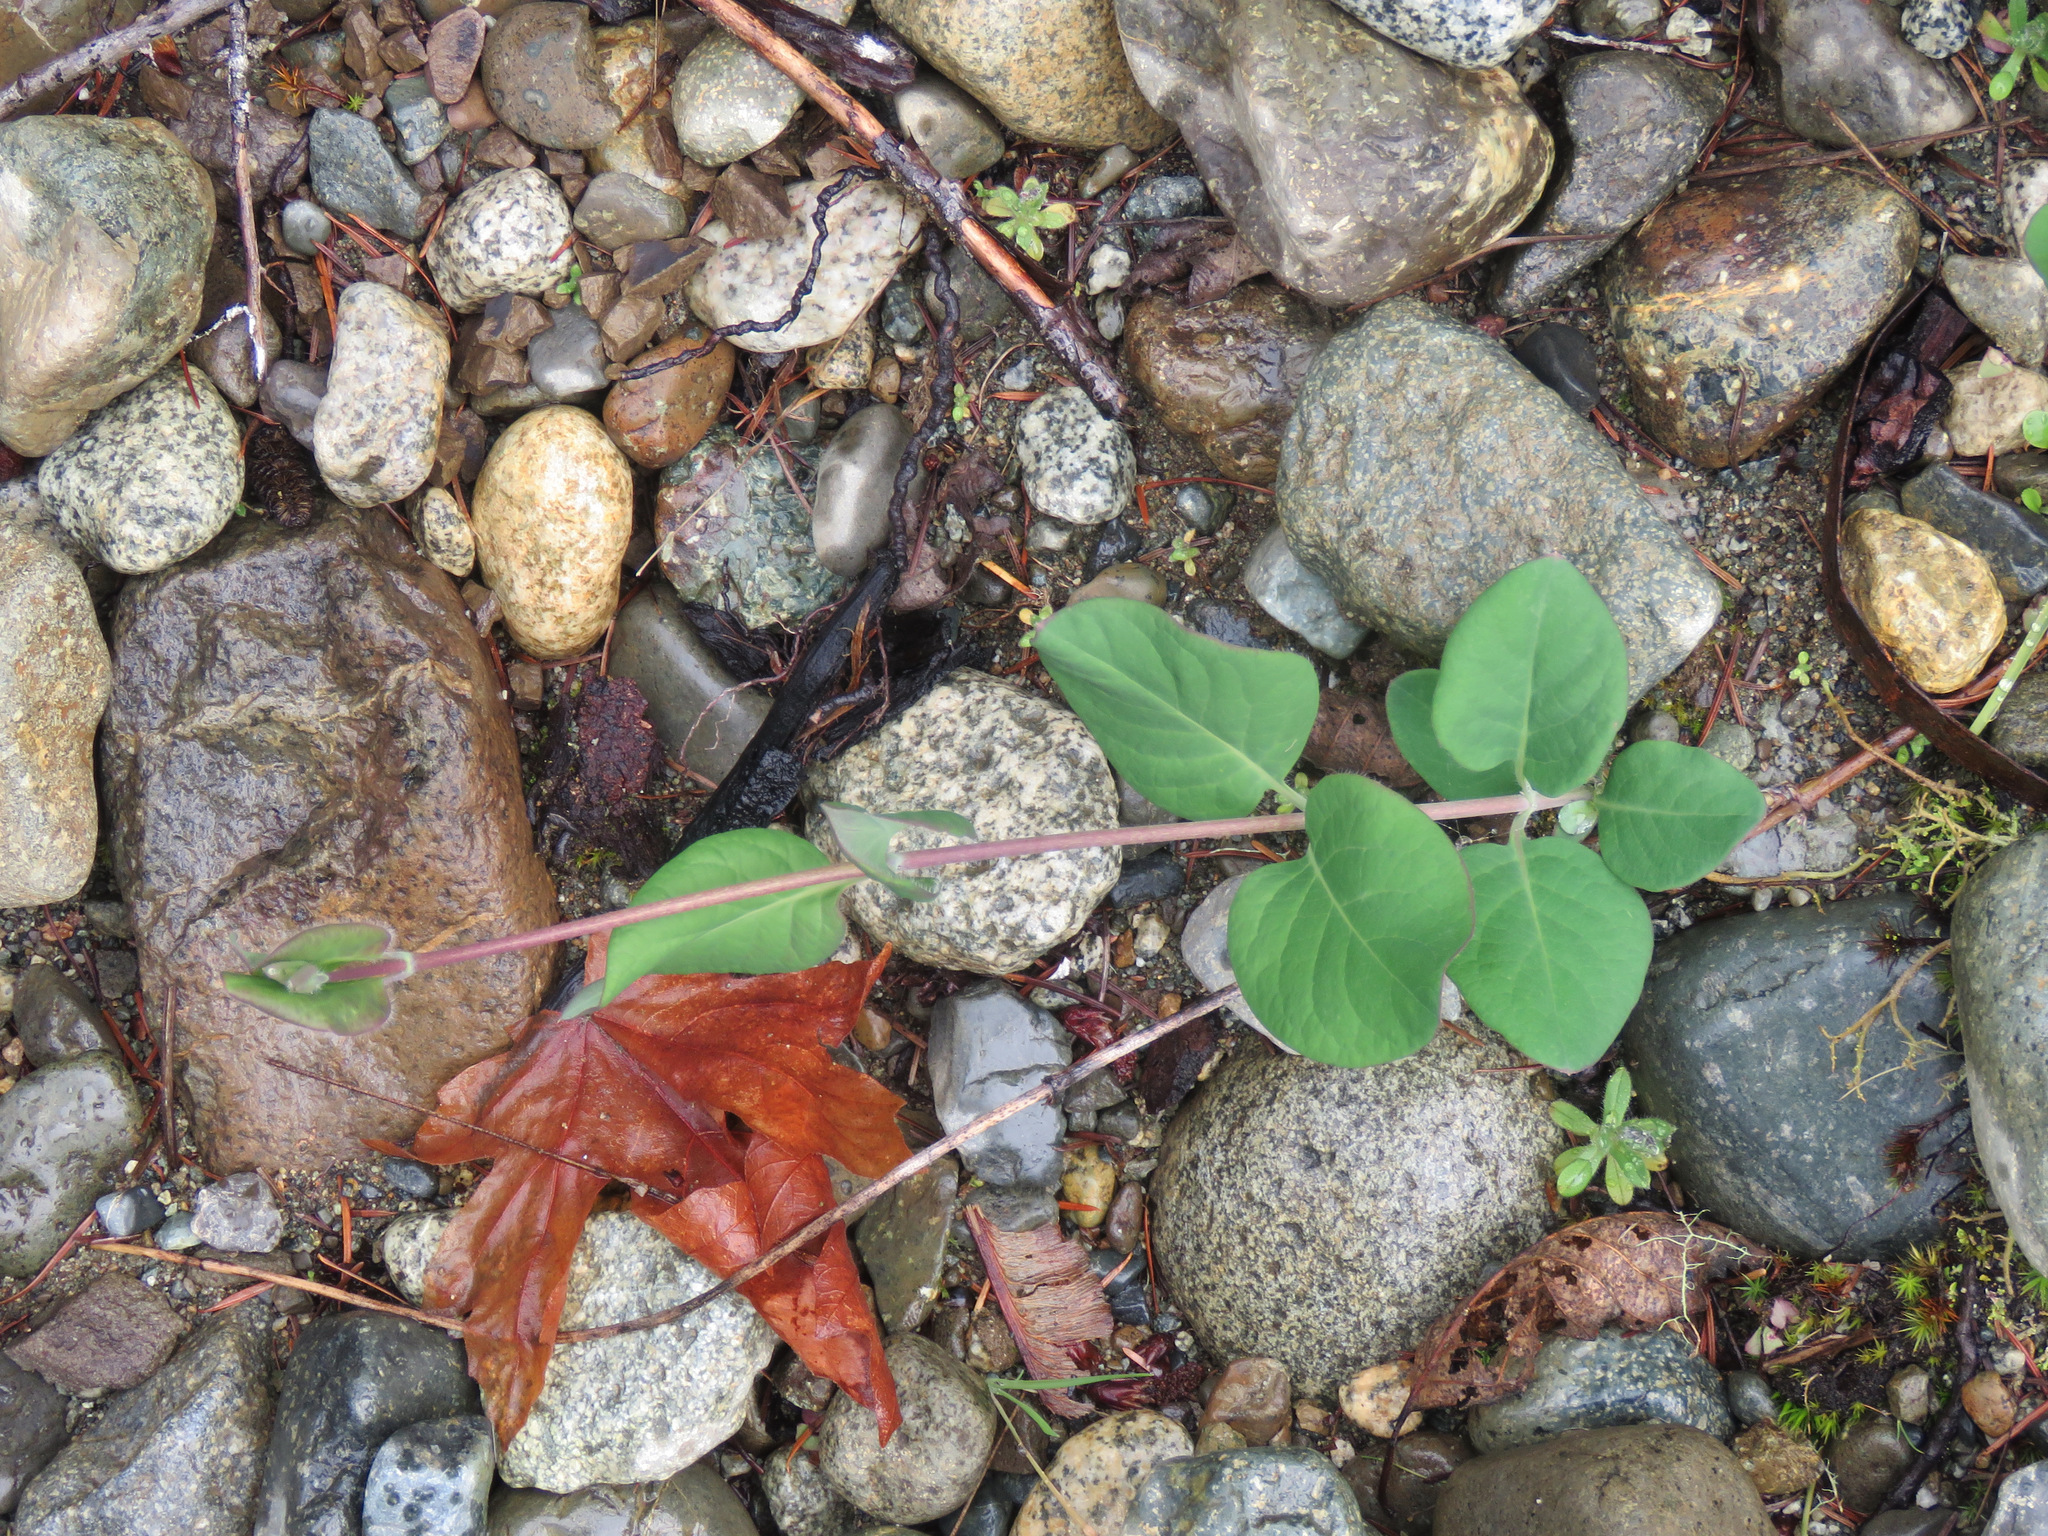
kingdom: Plantae
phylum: Tracheophyta
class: Magnoliopsida
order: Dipsacales
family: Caprifoliaceae
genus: Lonicera
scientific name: Lonicera ciliosa
